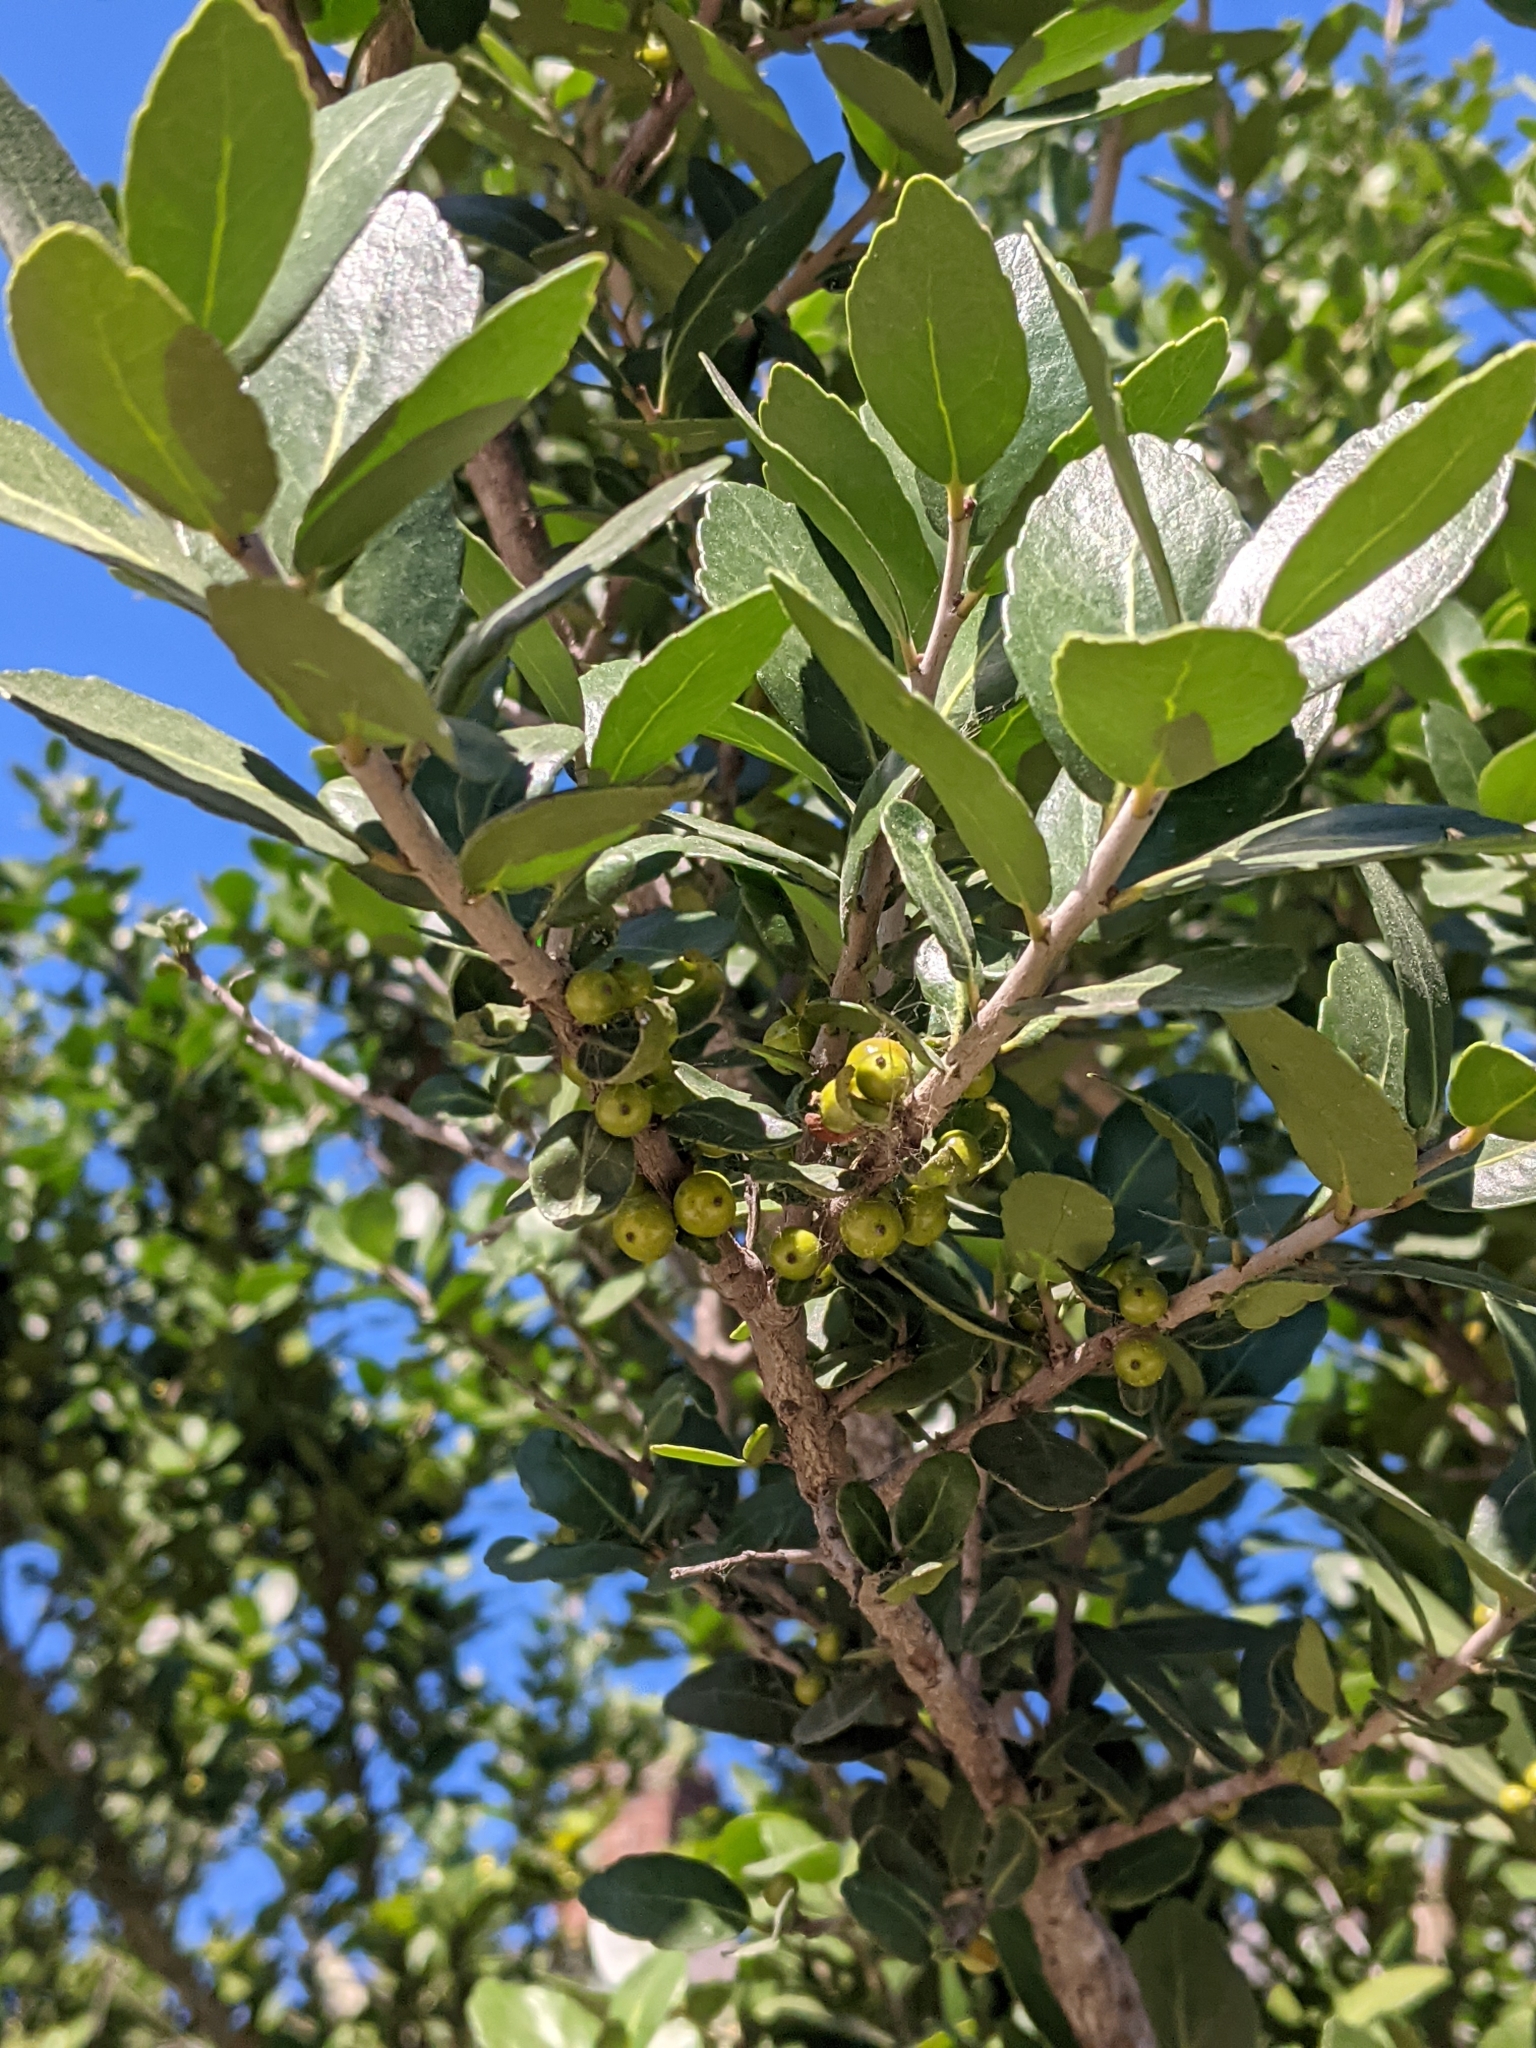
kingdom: Plantae
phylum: Tracheophyta
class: Magnoliopsida
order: Aquifoliales
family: Aquifoliaceae
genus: Ilex
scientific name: Ilex vomitoria
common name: Yaupon holly
